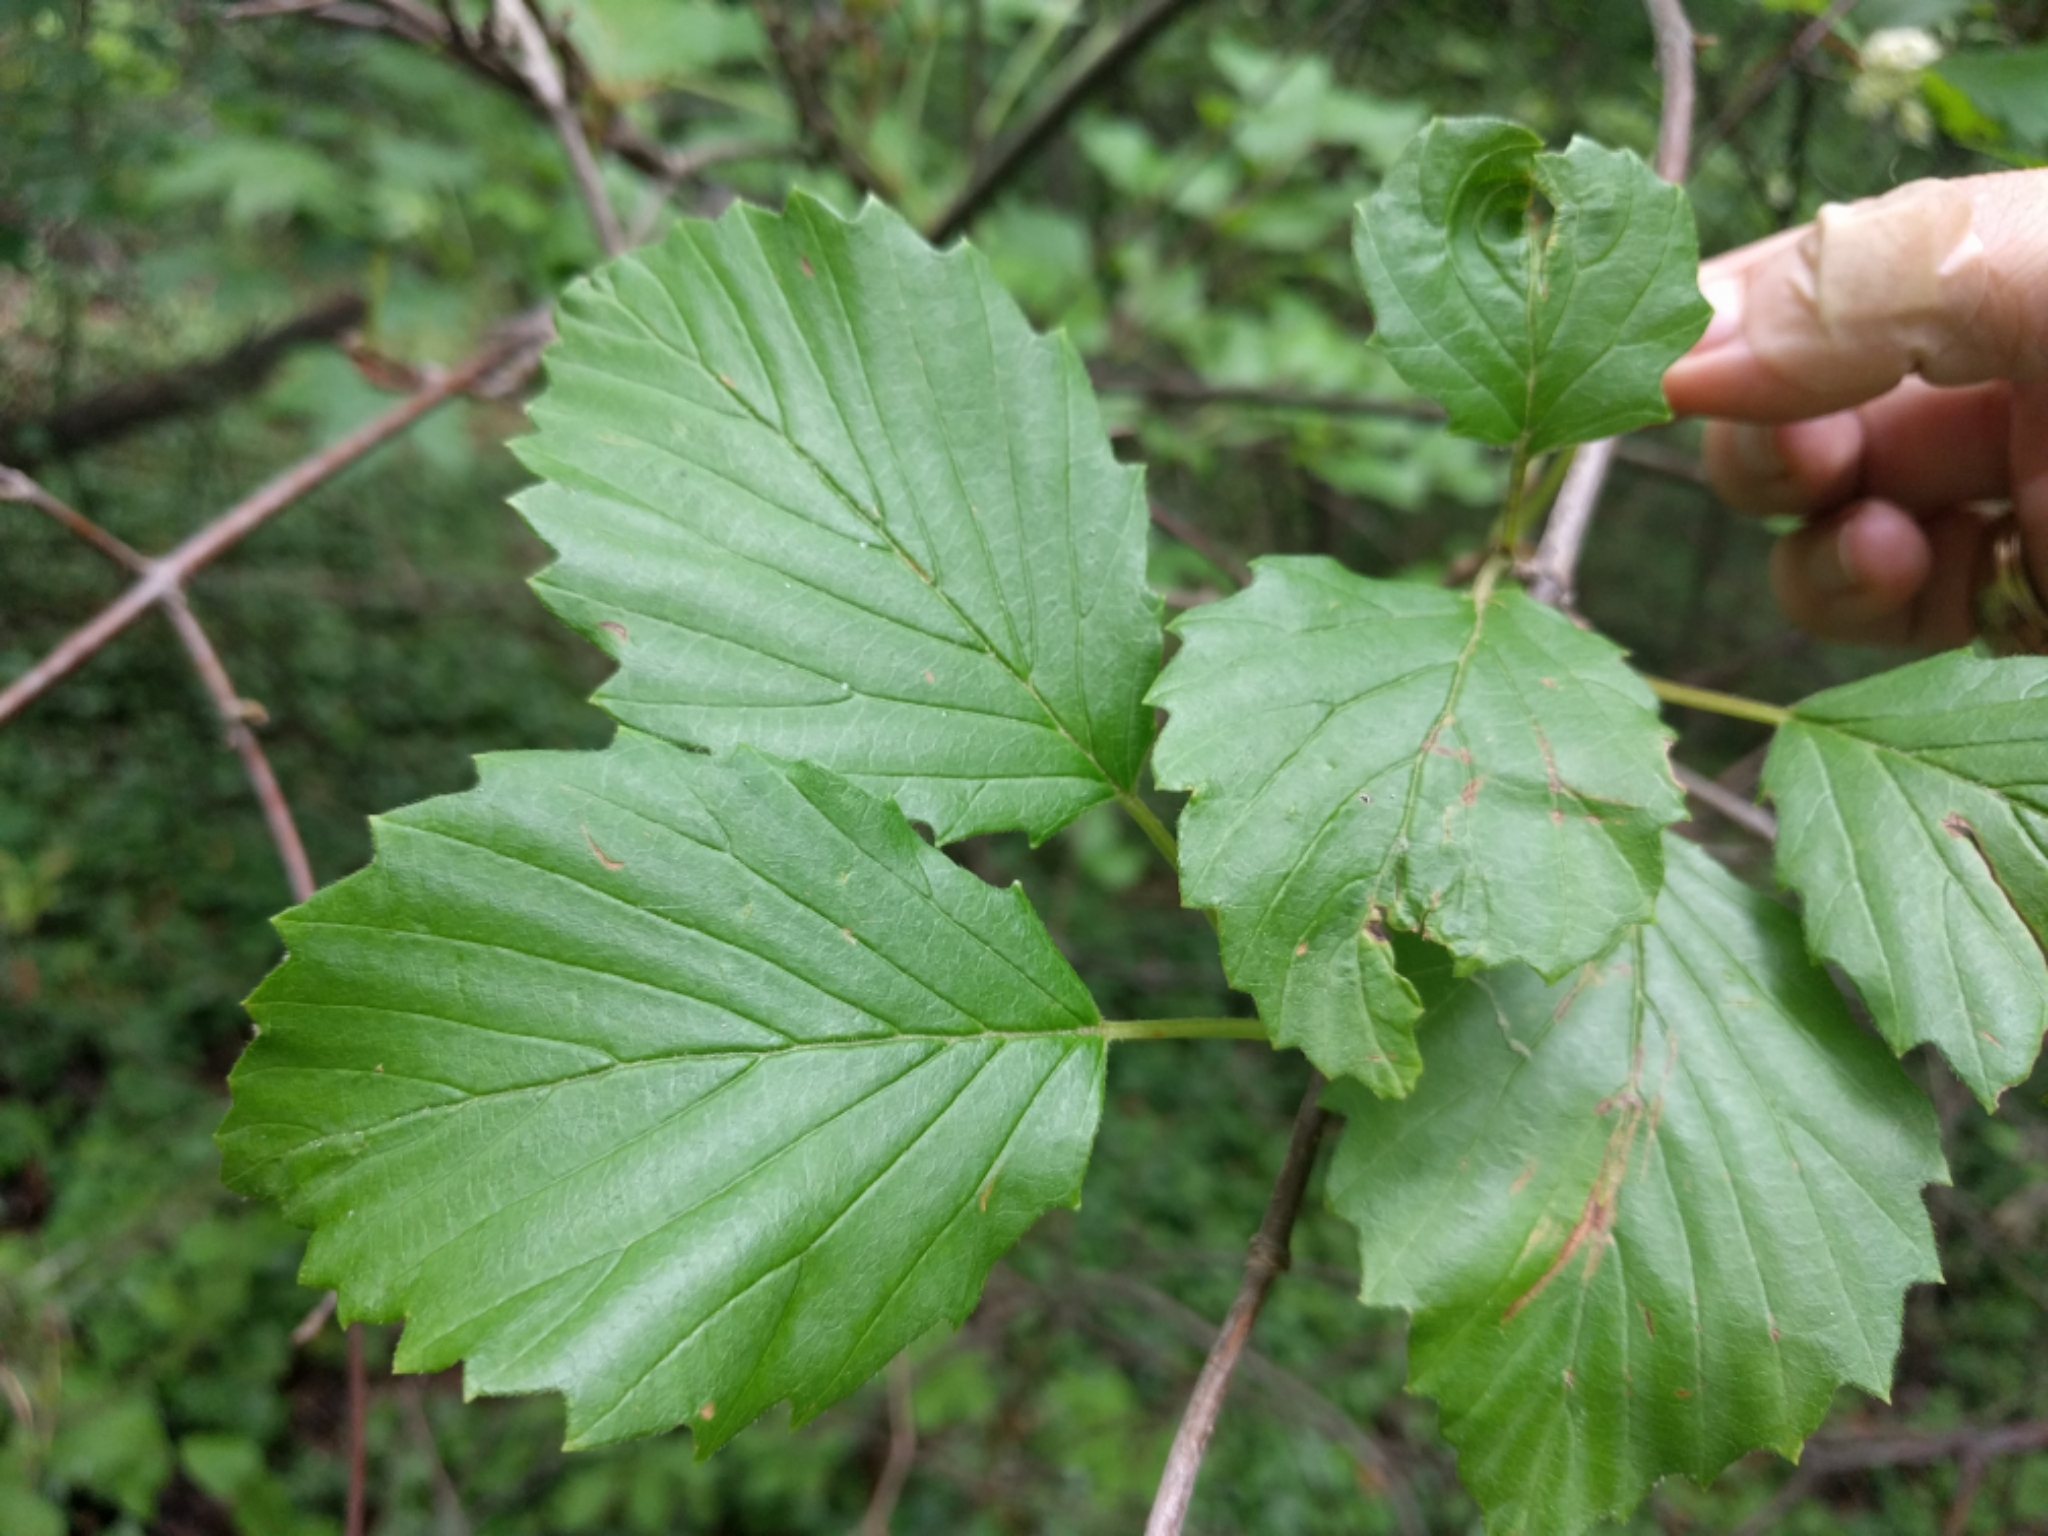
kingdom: Plantae
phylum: Tracheophyta
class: Magnoliopsida
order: Dipsacales
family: Viburnaceae
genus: Viburnum
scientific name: Viburnum dentatum
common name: Arrow-wood
